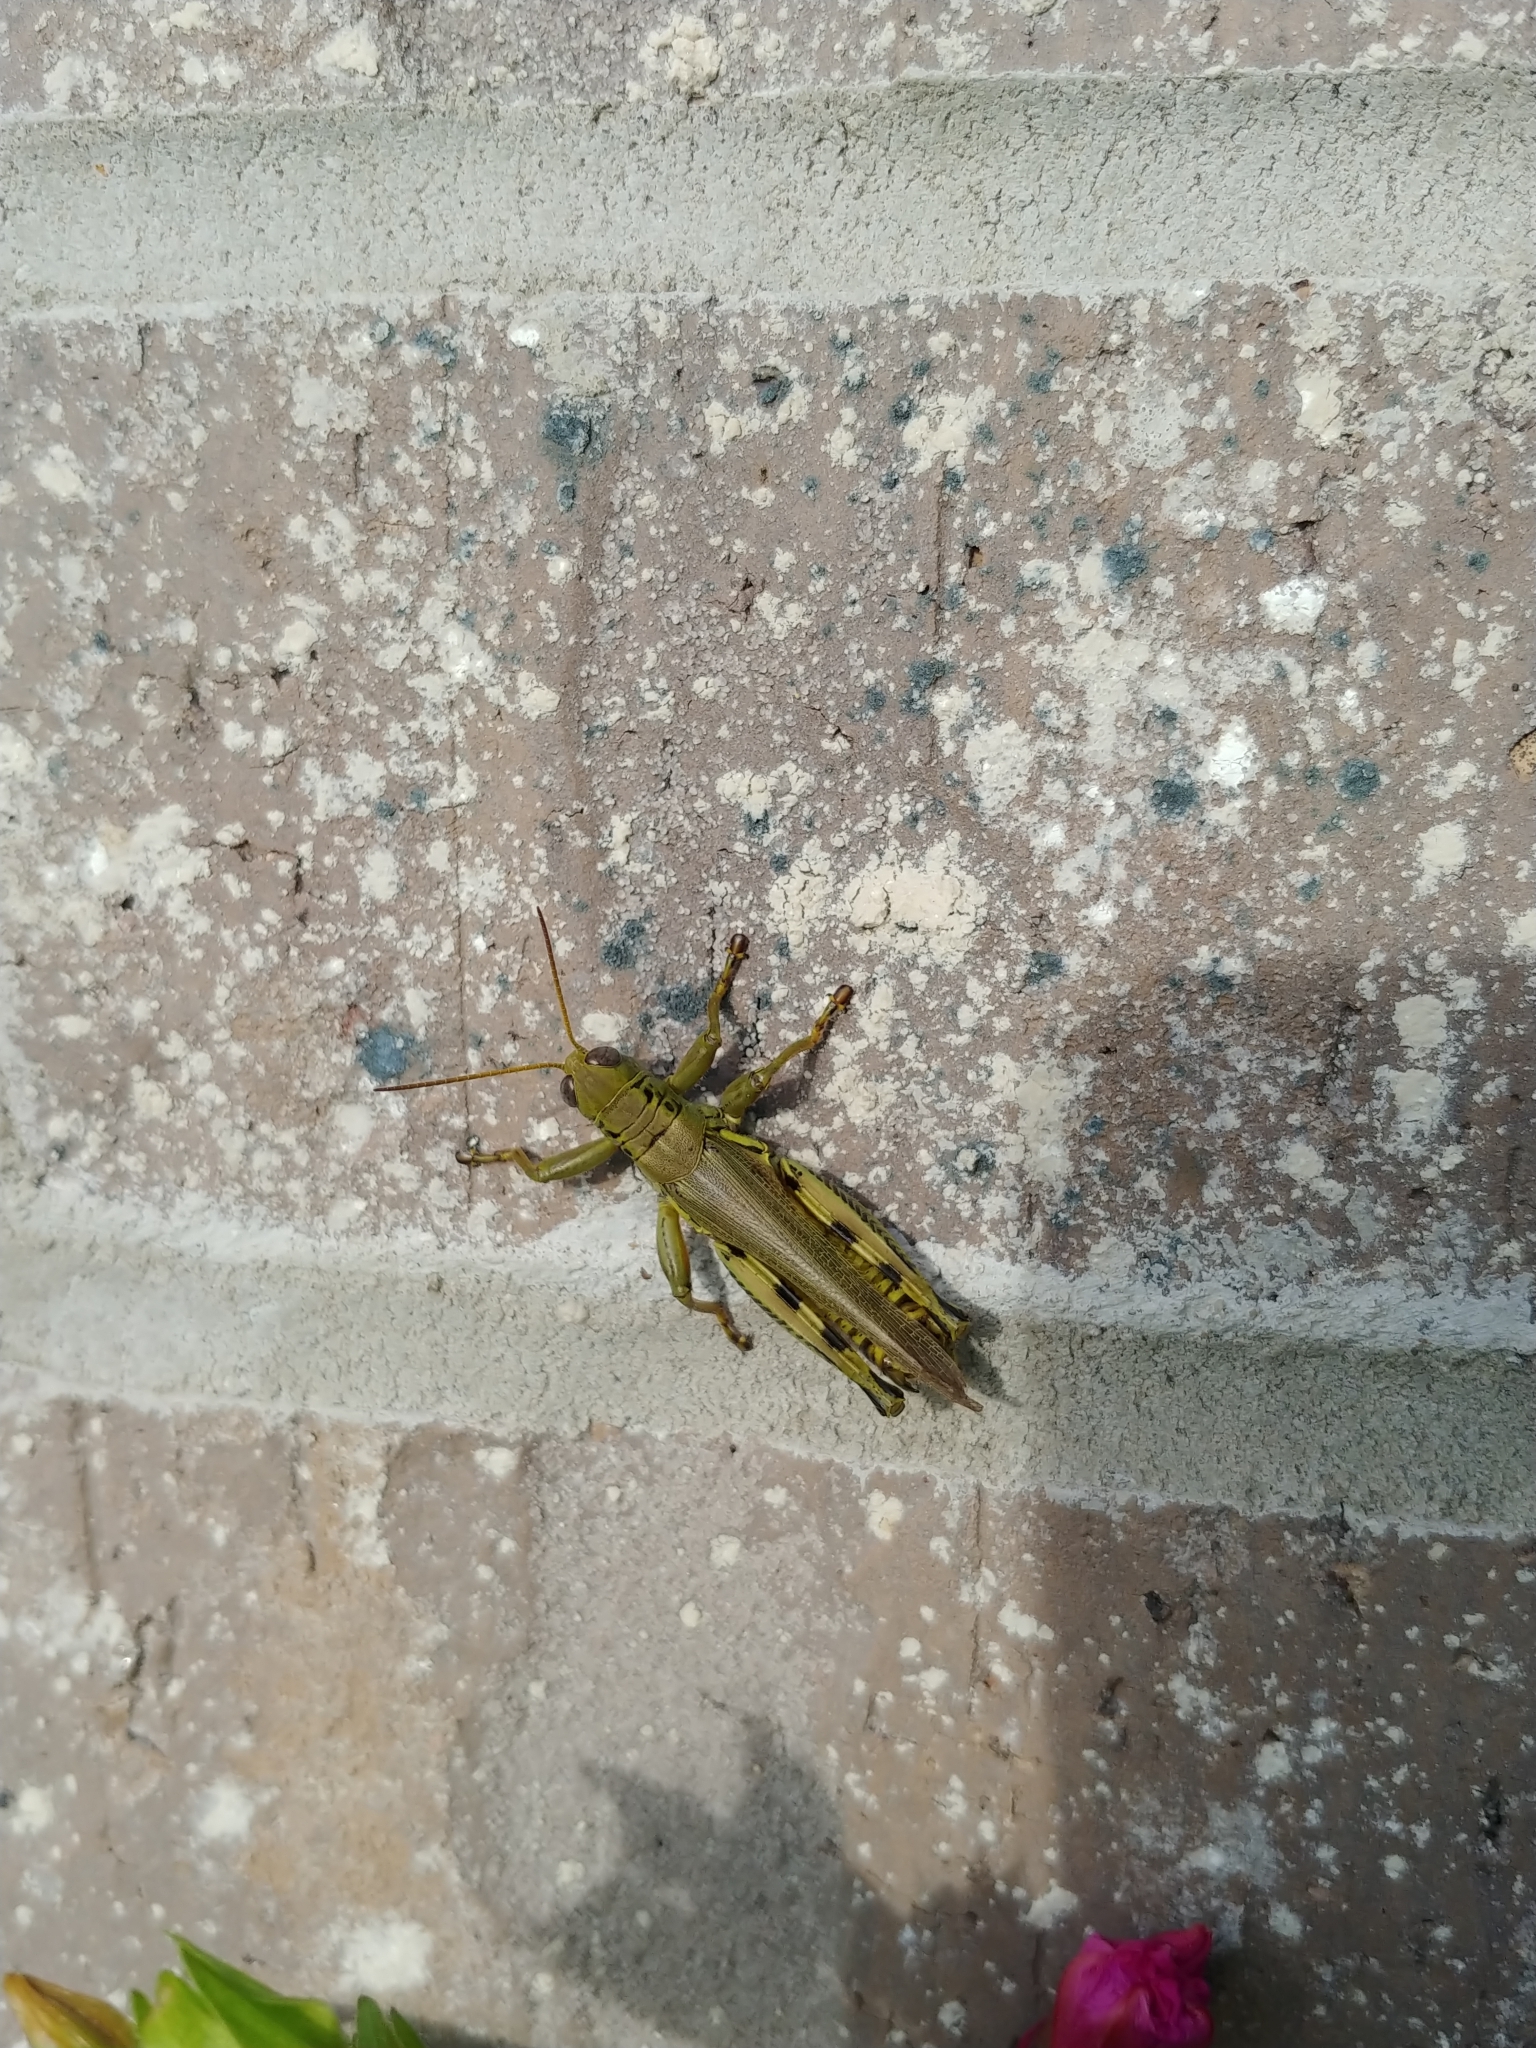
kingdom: Animalia
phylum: Arthropoda
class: Insecta
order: Orthoptera
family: Acrididae
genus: Melanoplus
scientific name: Melanoplus differentialis
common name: Differential grasshopper
